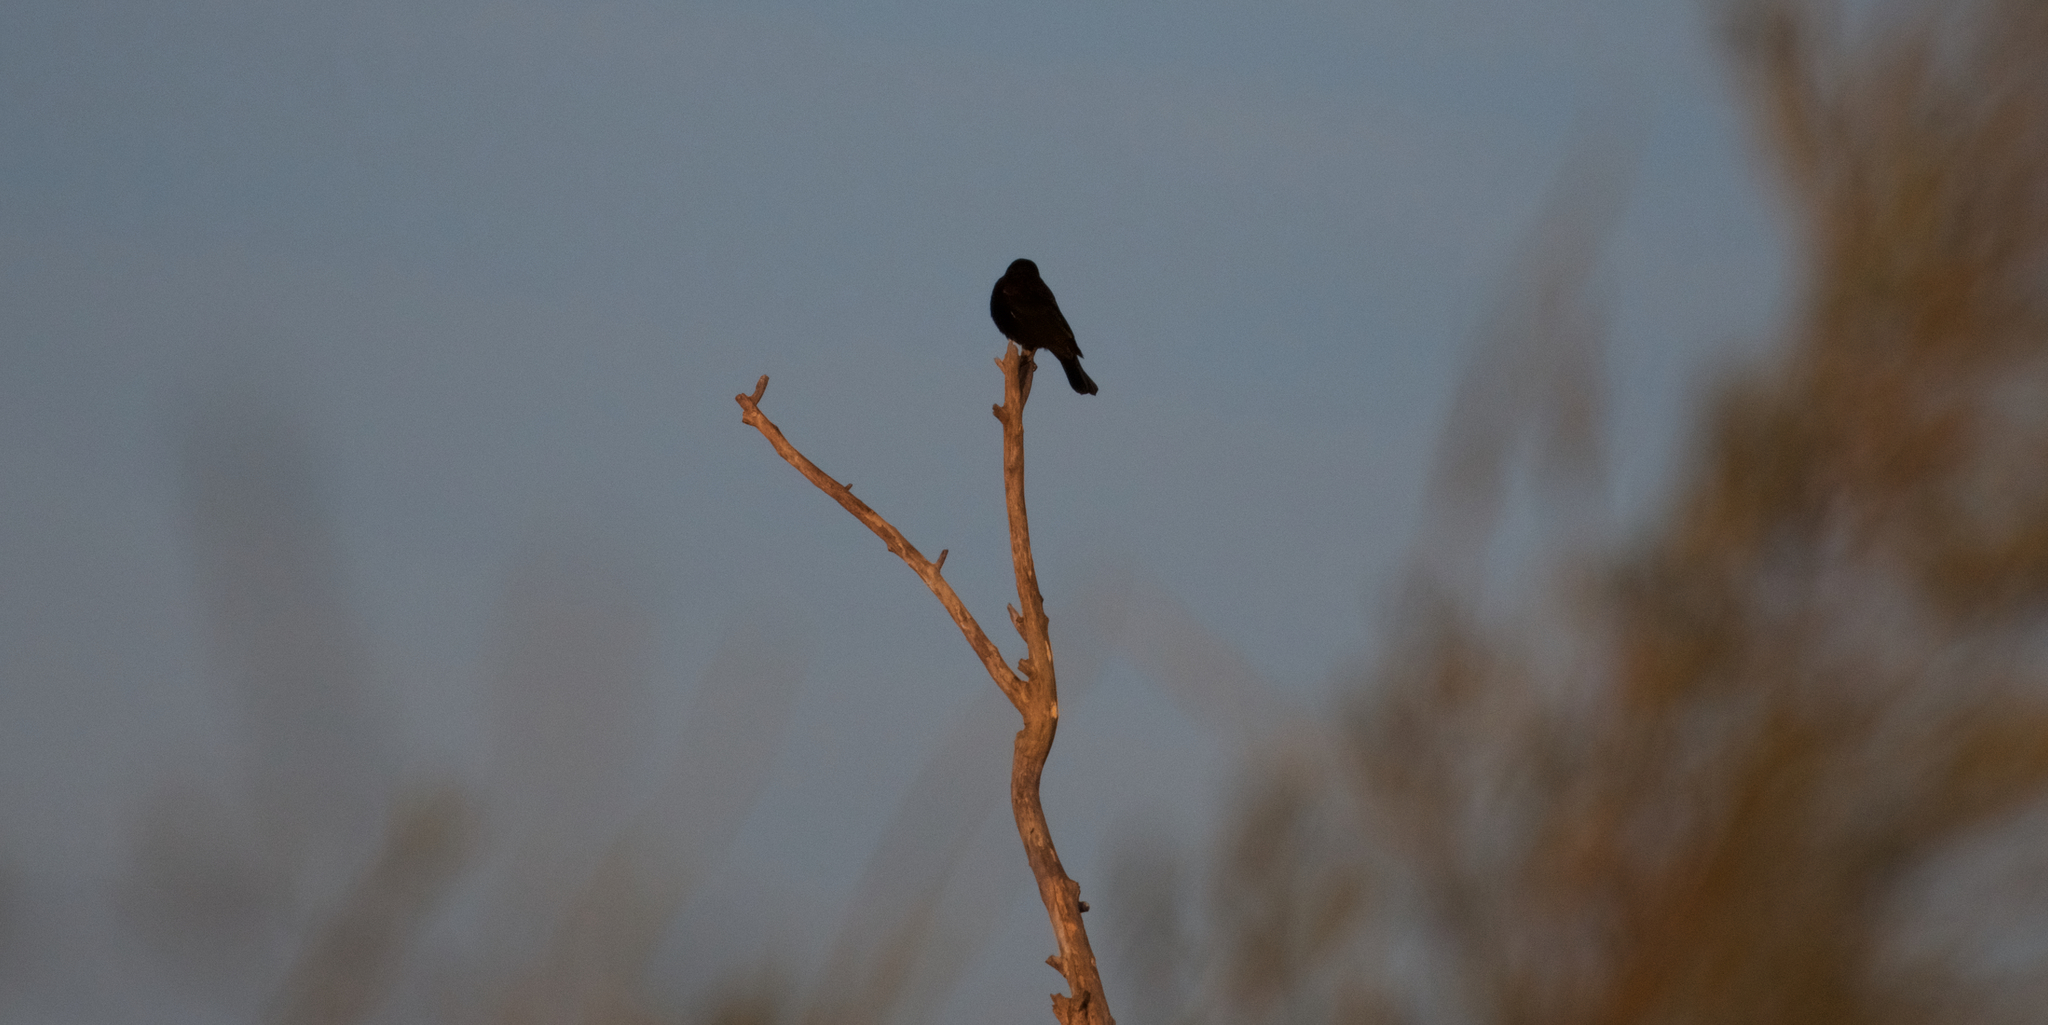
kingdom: Animalia
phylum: Chordata
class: Aves
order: Passeriformes
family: Icteridae
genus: Agelaius
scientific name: Agelaius phoeniceus
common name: Red-winged blackbird
